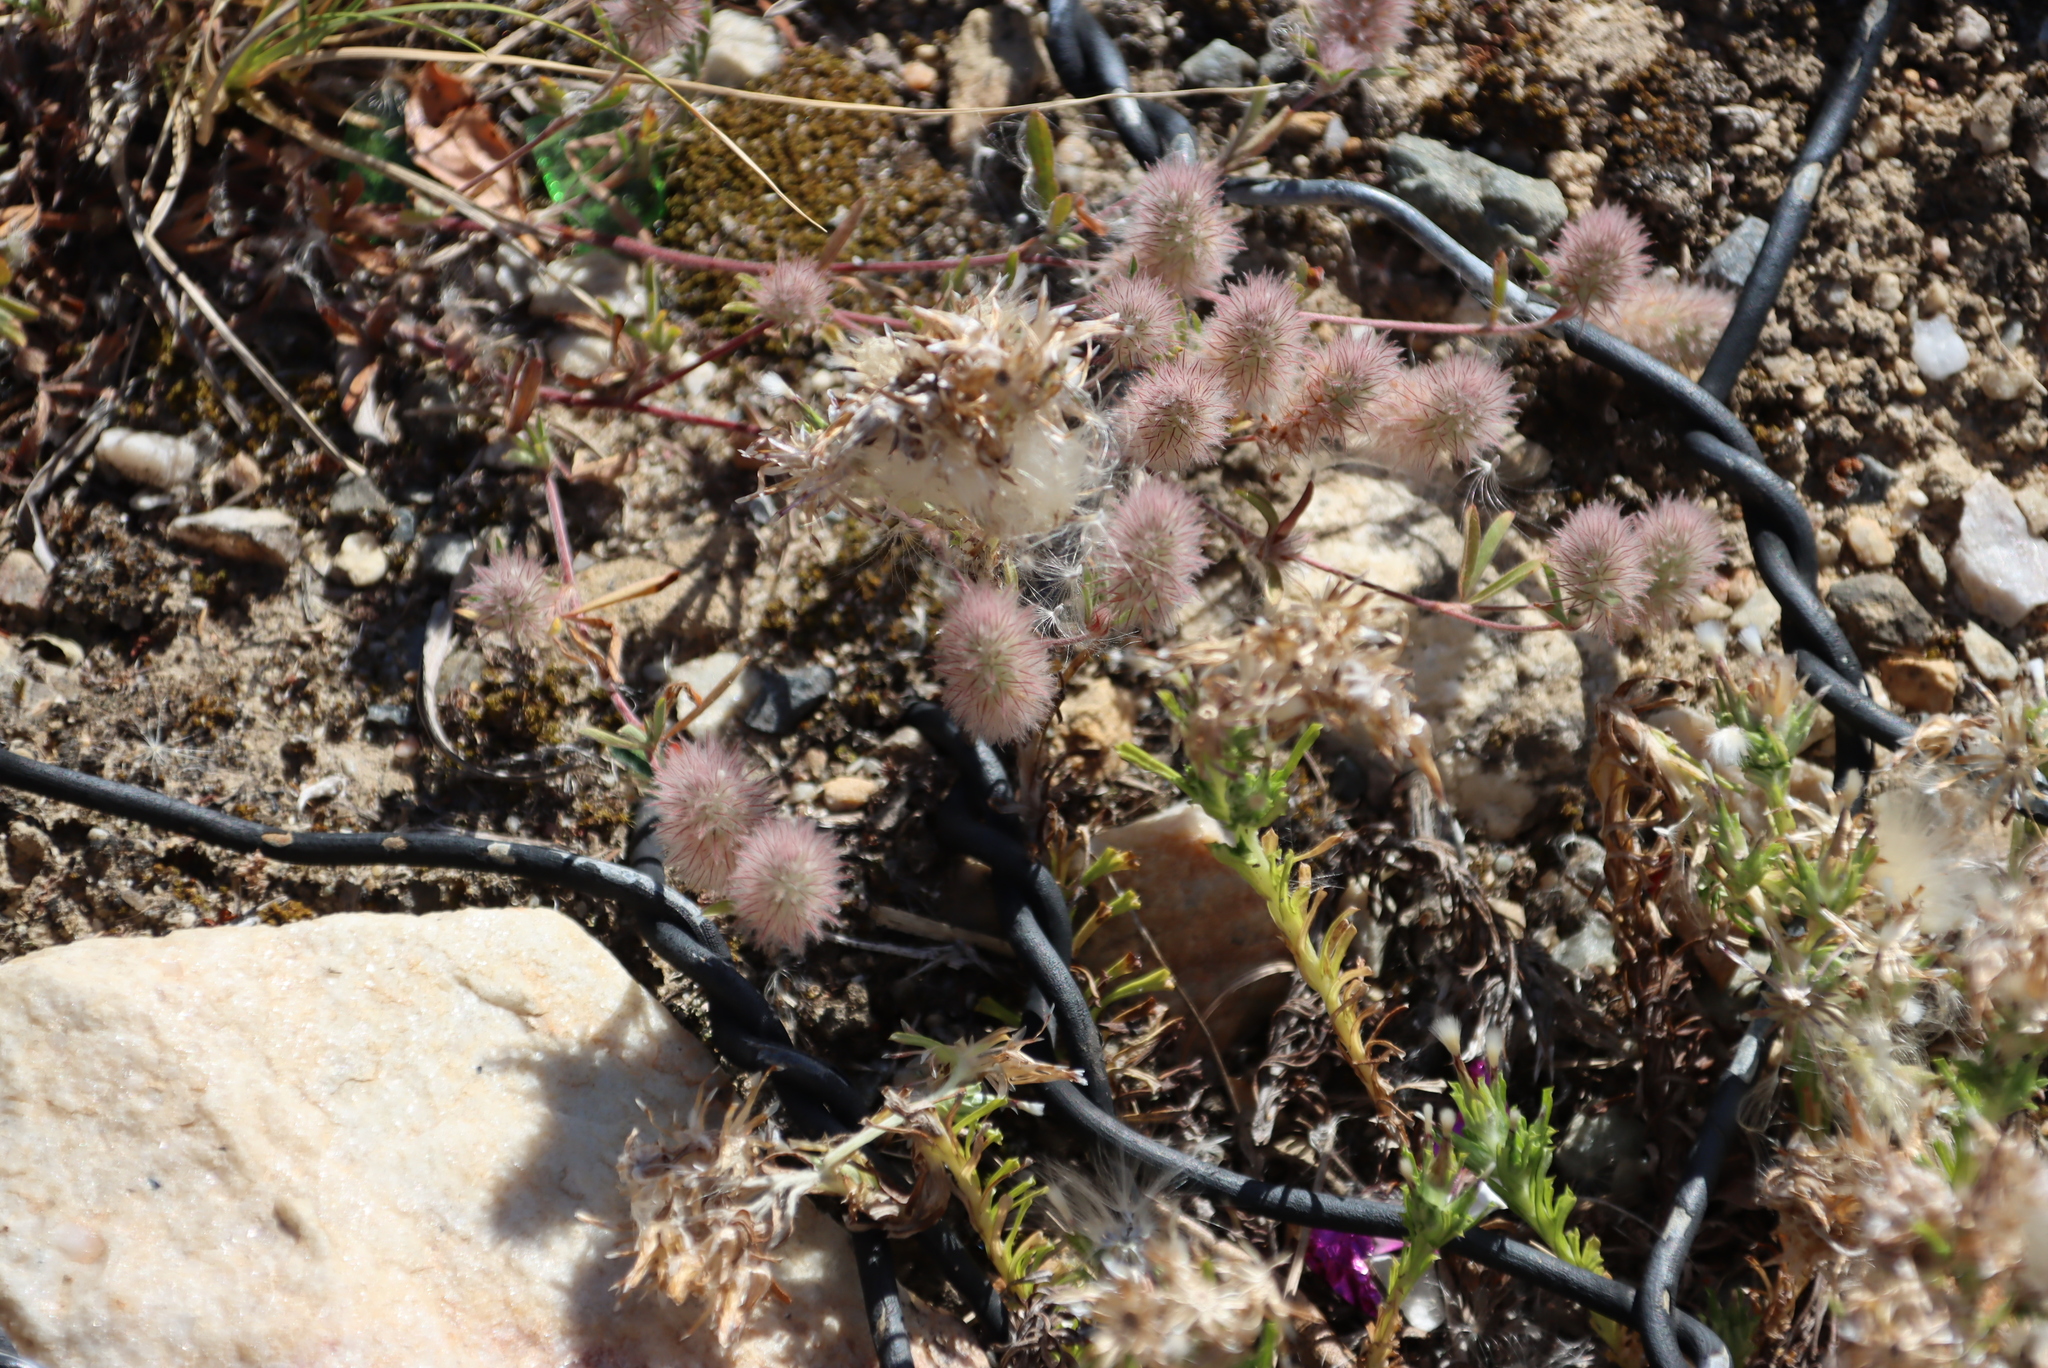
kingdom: Plantae
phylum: Tracheophyta
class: Magnoliopsida
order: Fabales
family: Fabaceae
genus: Trifolium
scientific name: Trifolium arvense
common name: Hare's-foot clover
